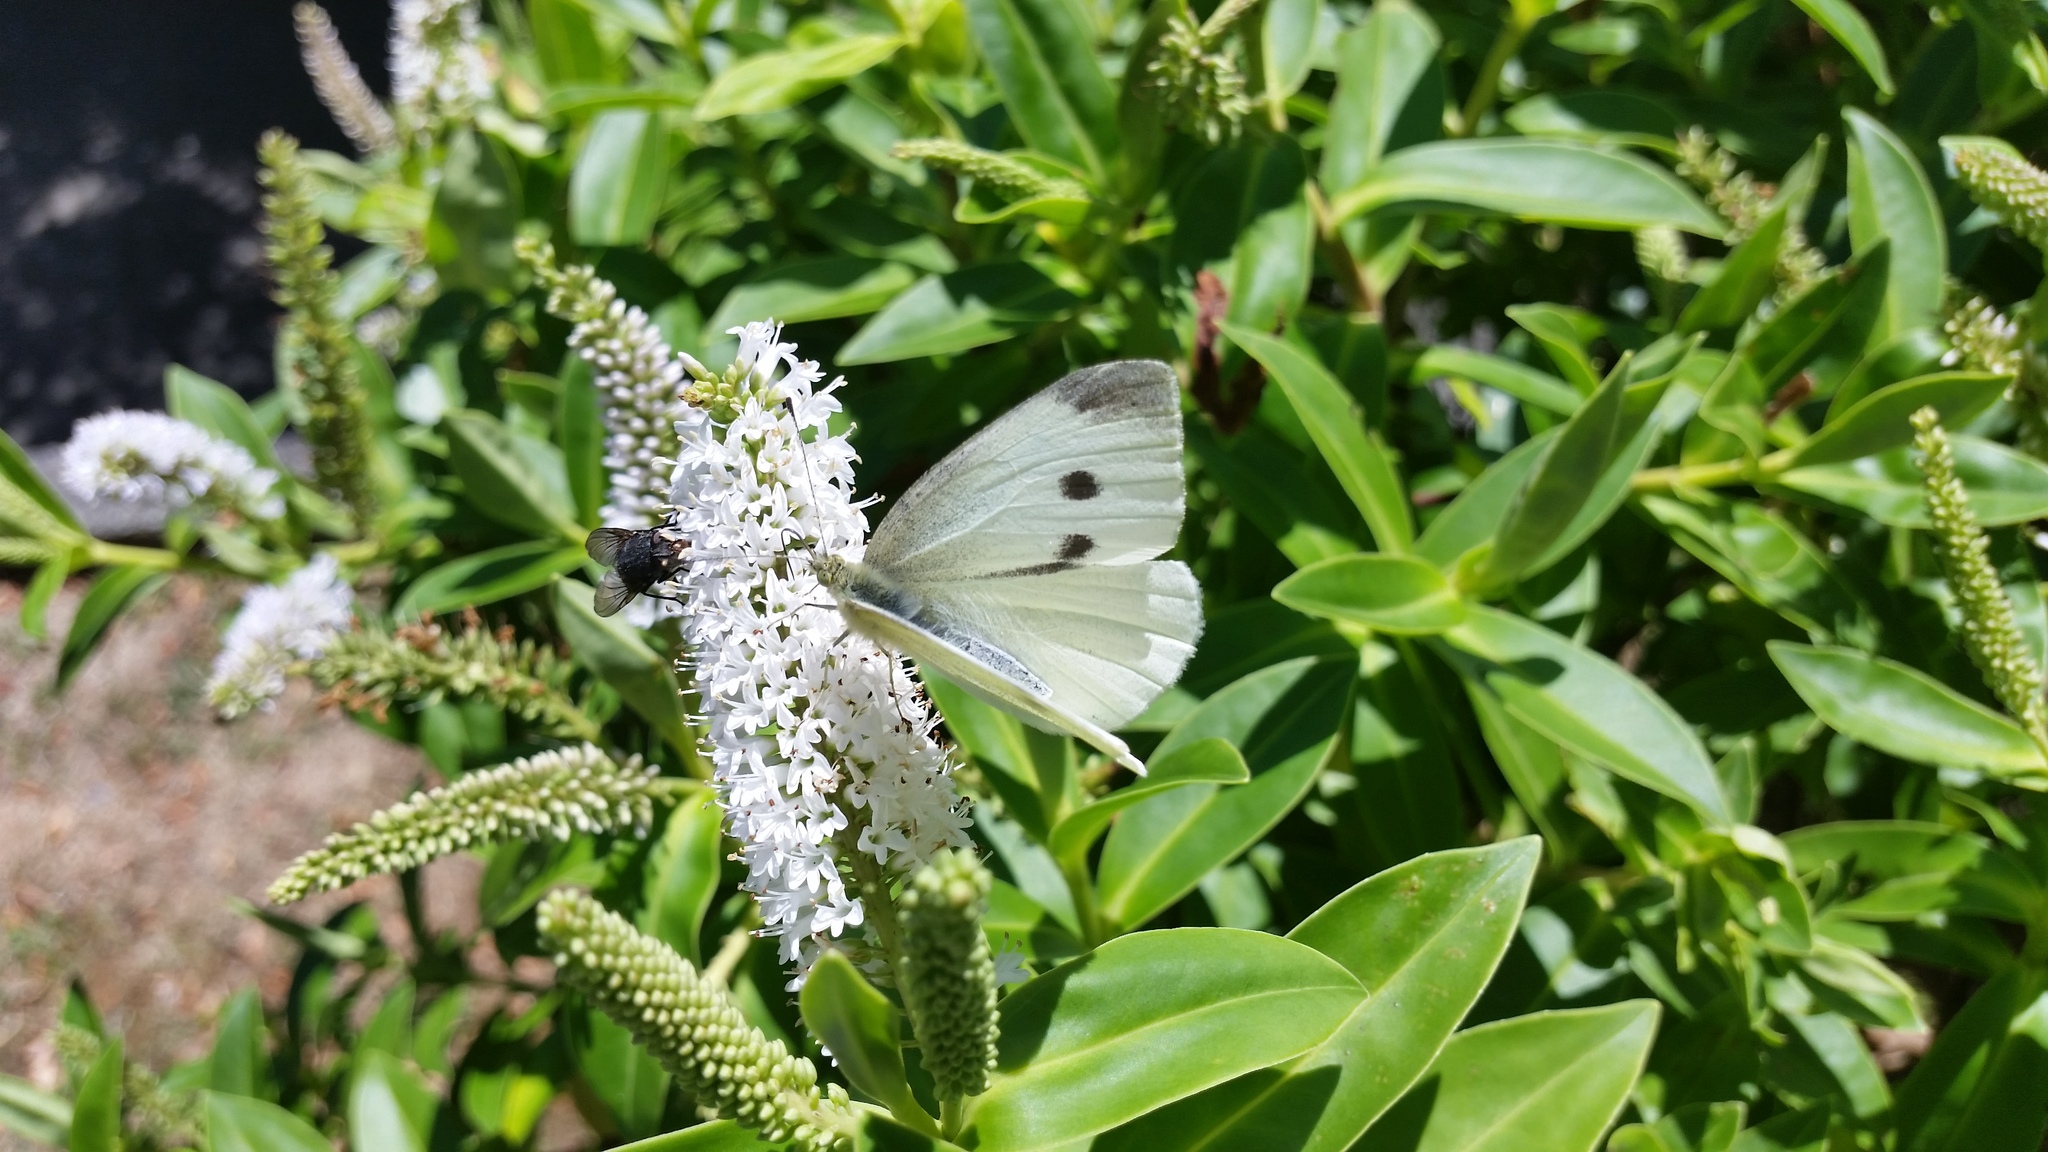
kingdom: Animalia
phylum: Arthropoda
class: Insecta
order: Lepidoptera
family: Pieridae
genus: Pieris
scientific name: Pieris rapae
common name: Small white
